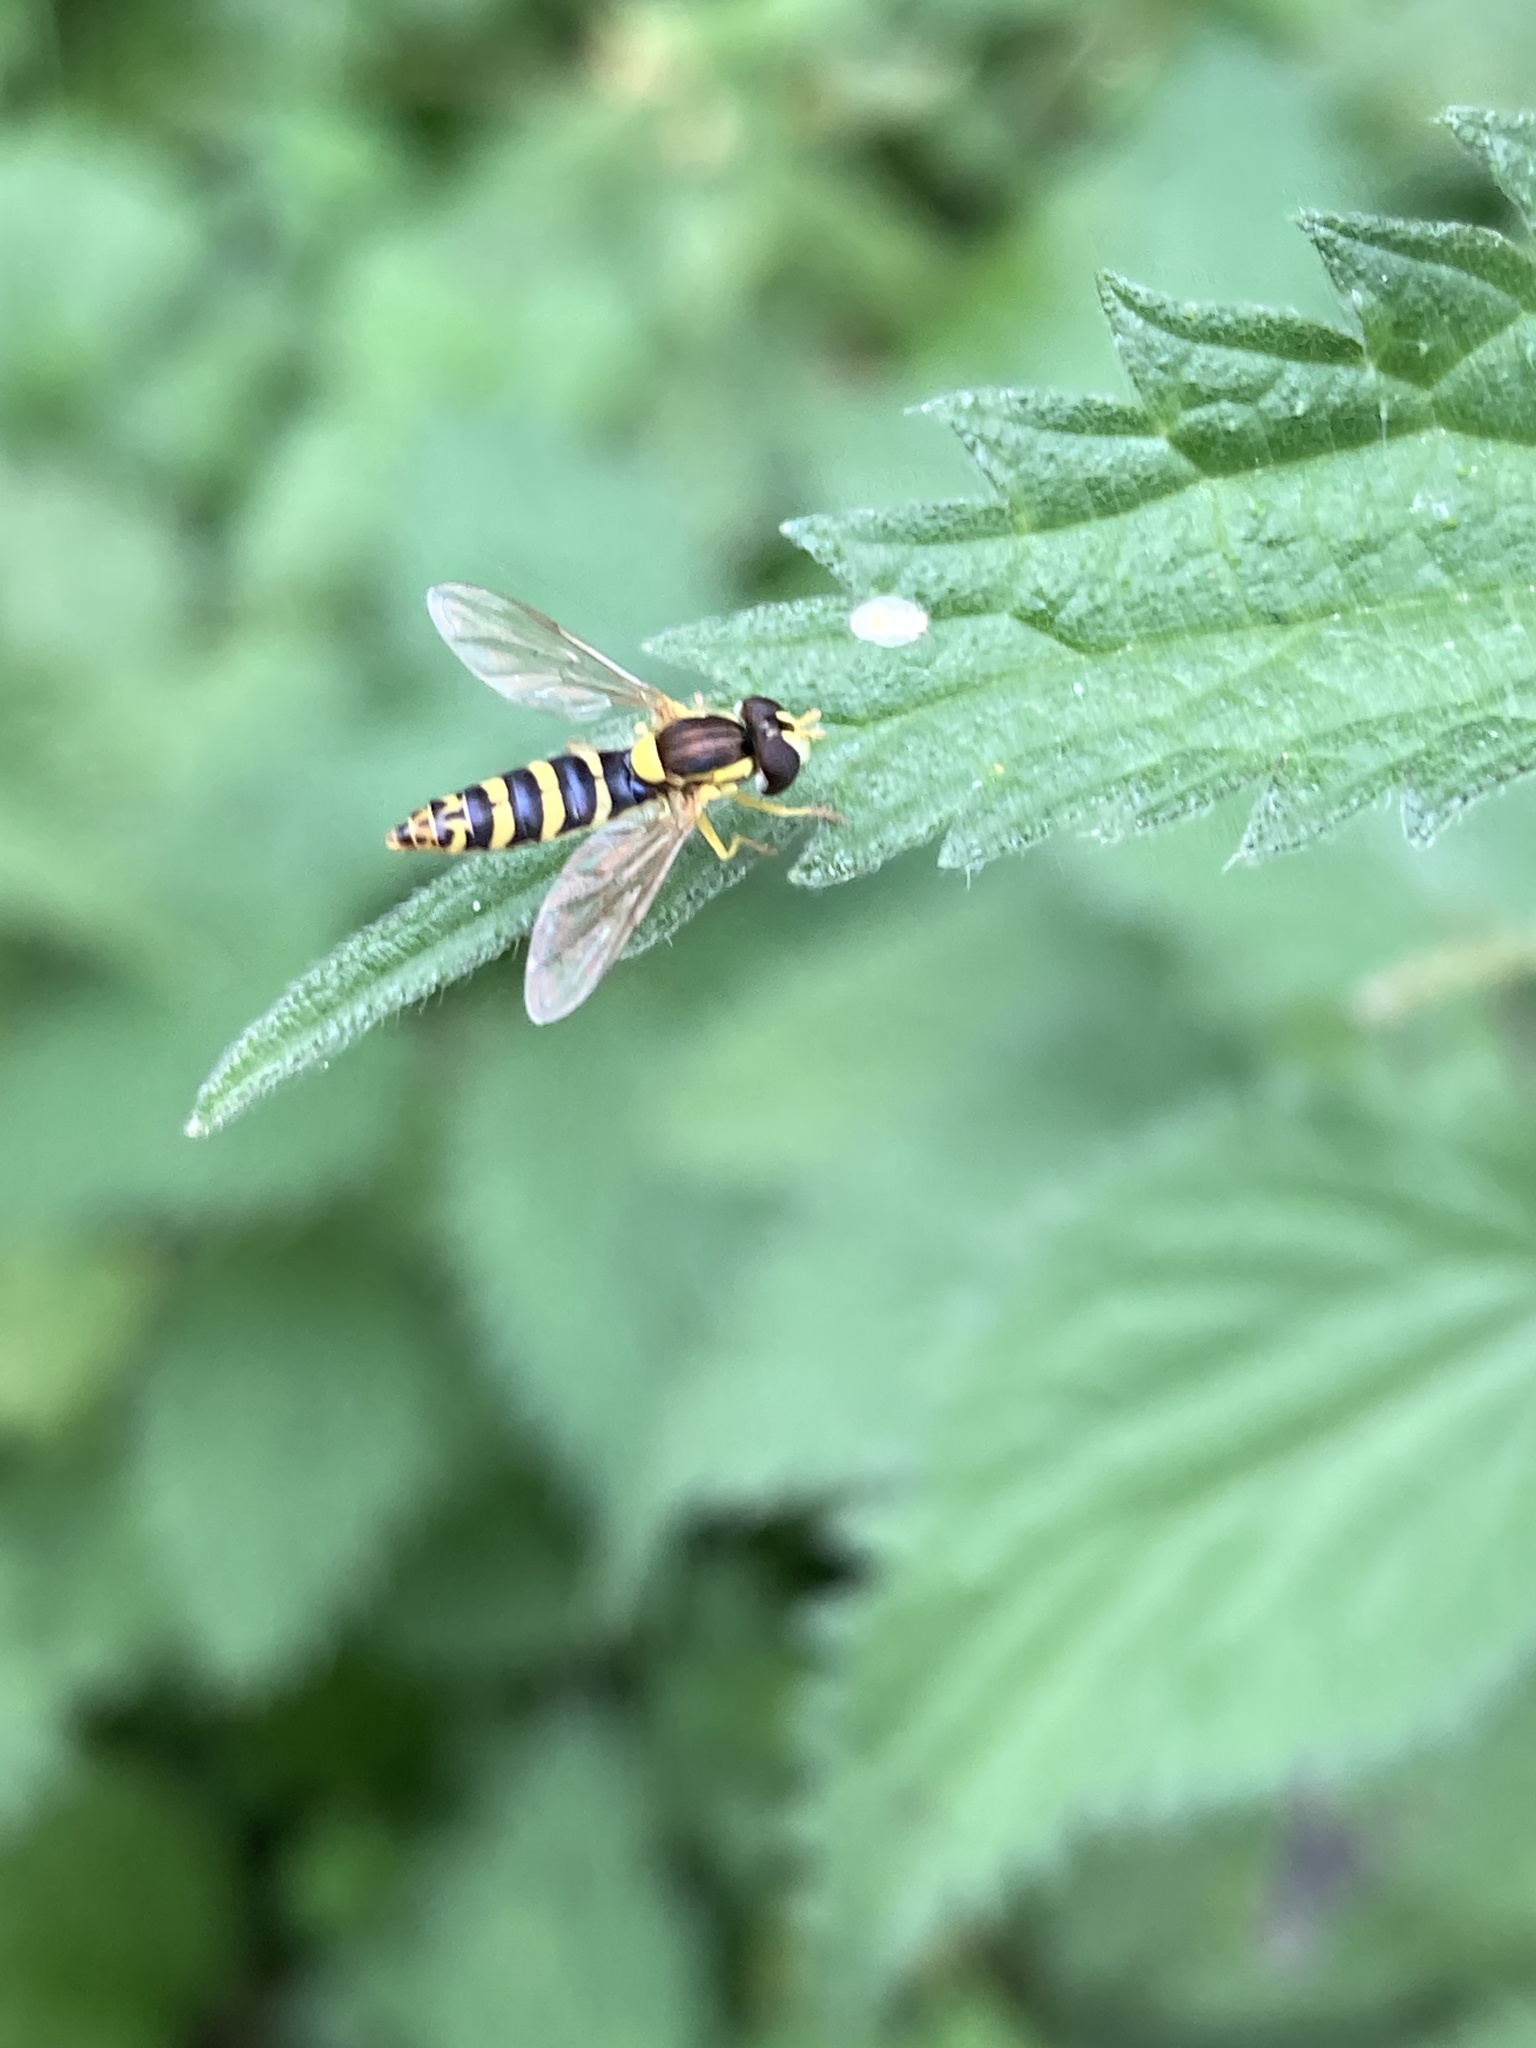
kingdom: Animalia
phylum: Arthropoda
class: Insecta
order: Diptera
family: Syrphidae
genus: Sphaerophoria
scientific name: Sphaerophoria
